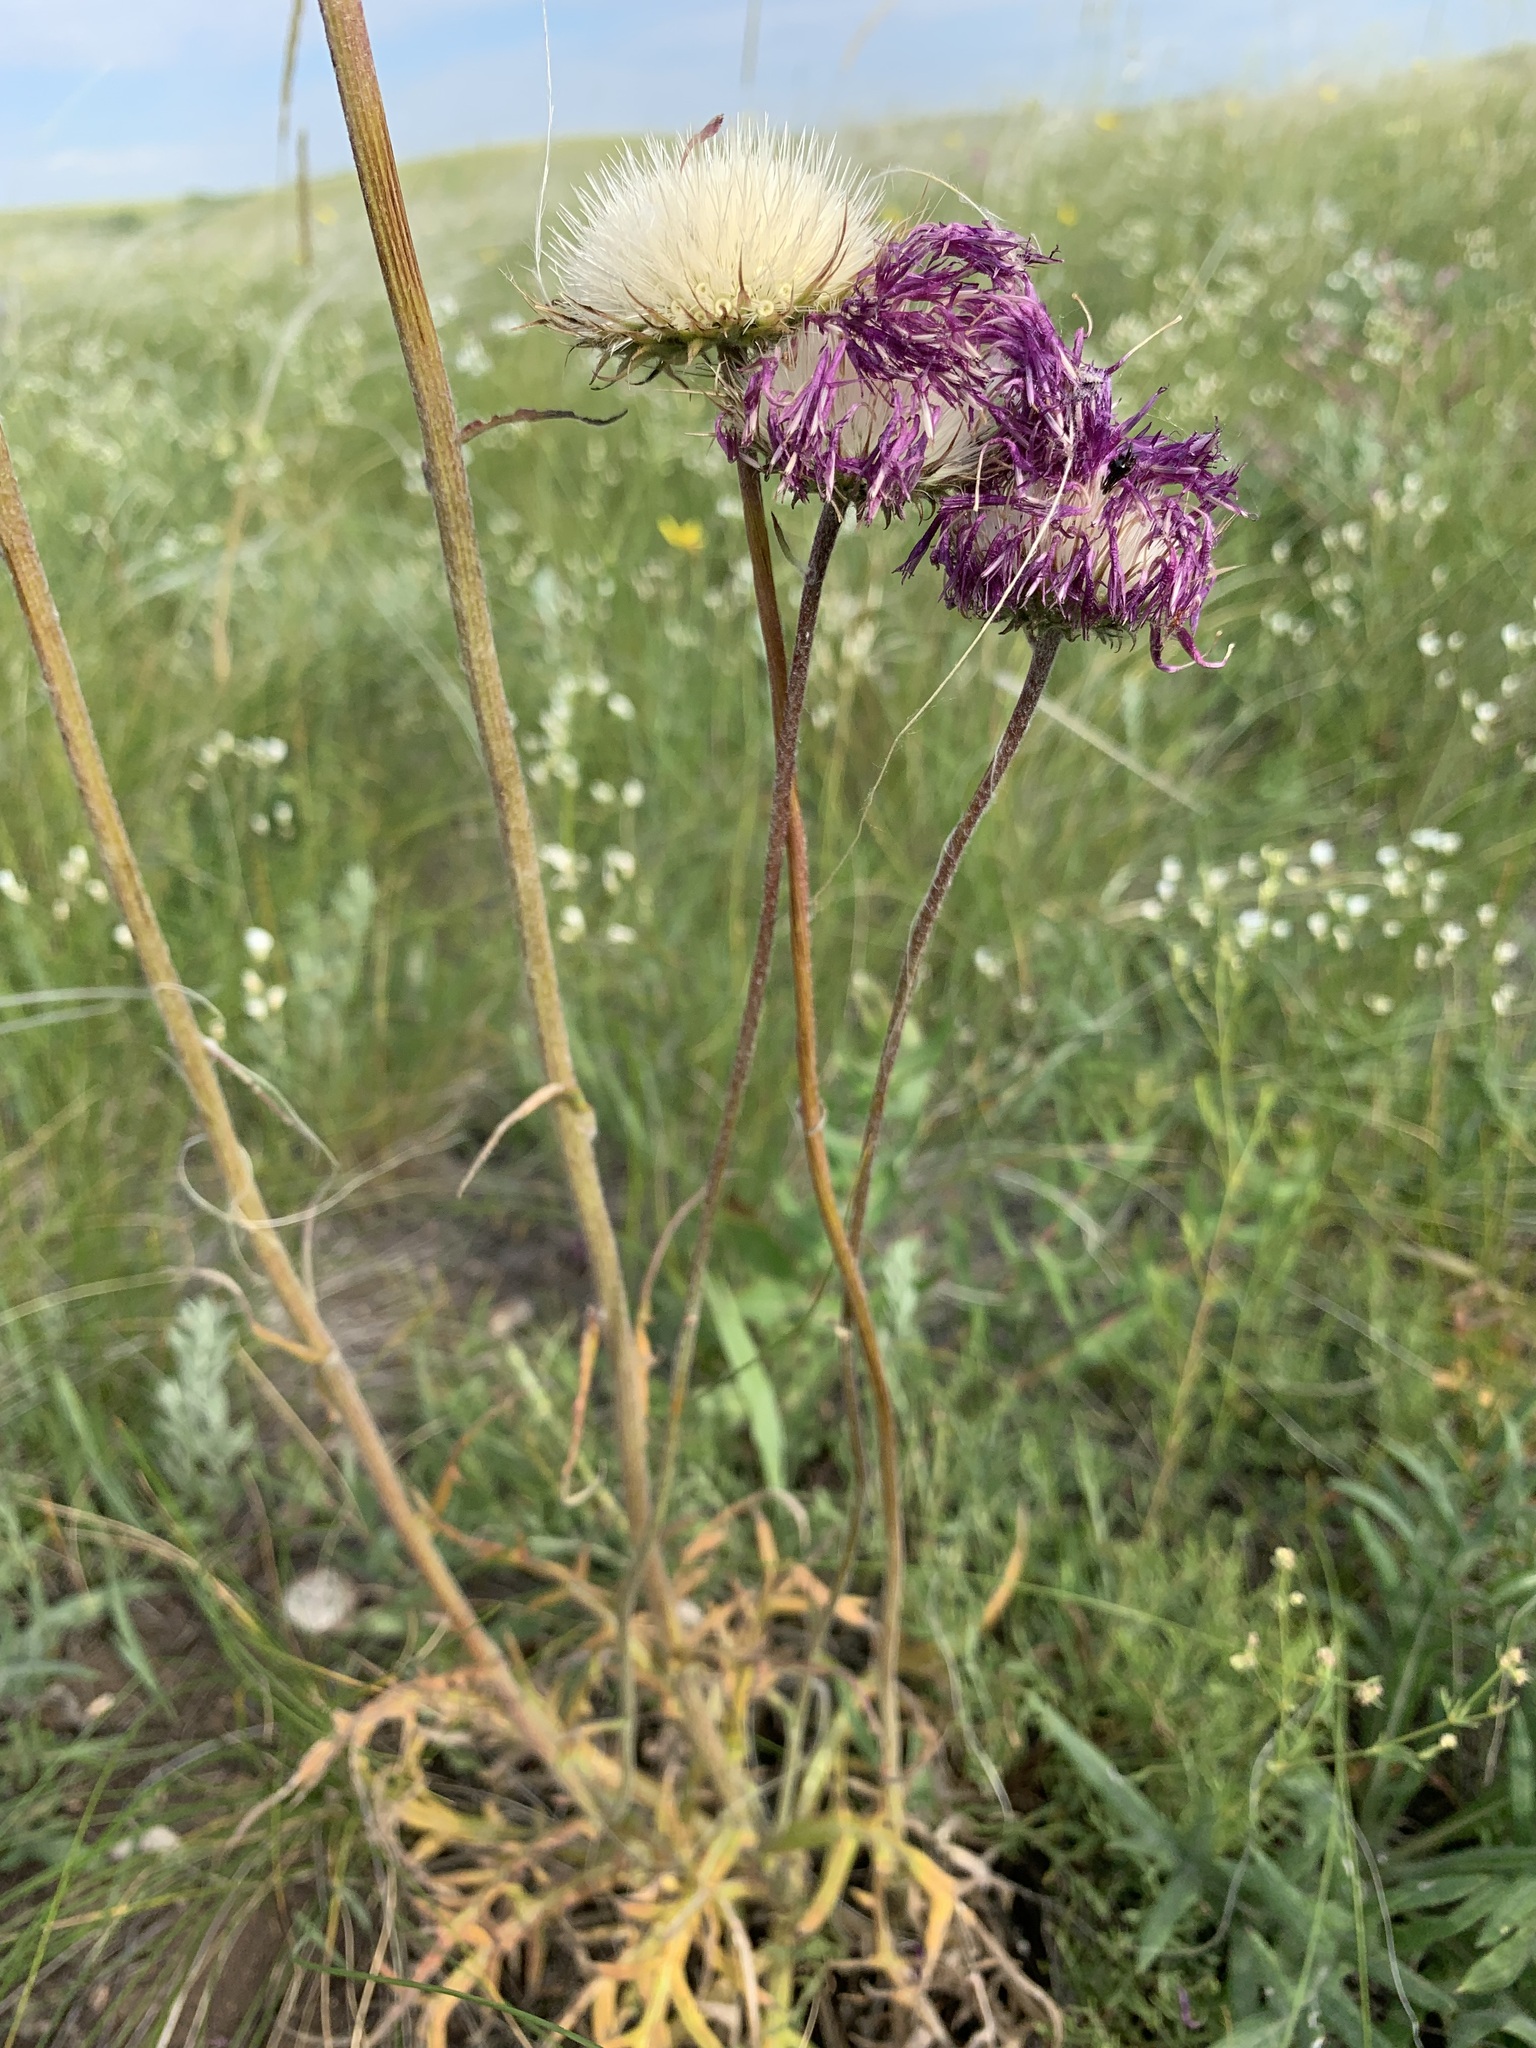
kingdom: Plantae
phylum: Tracheophyta
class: Magnoliopsida
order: Asterales
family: Asteraceae
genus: Jurinea
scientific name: Jurinea ledebourii
